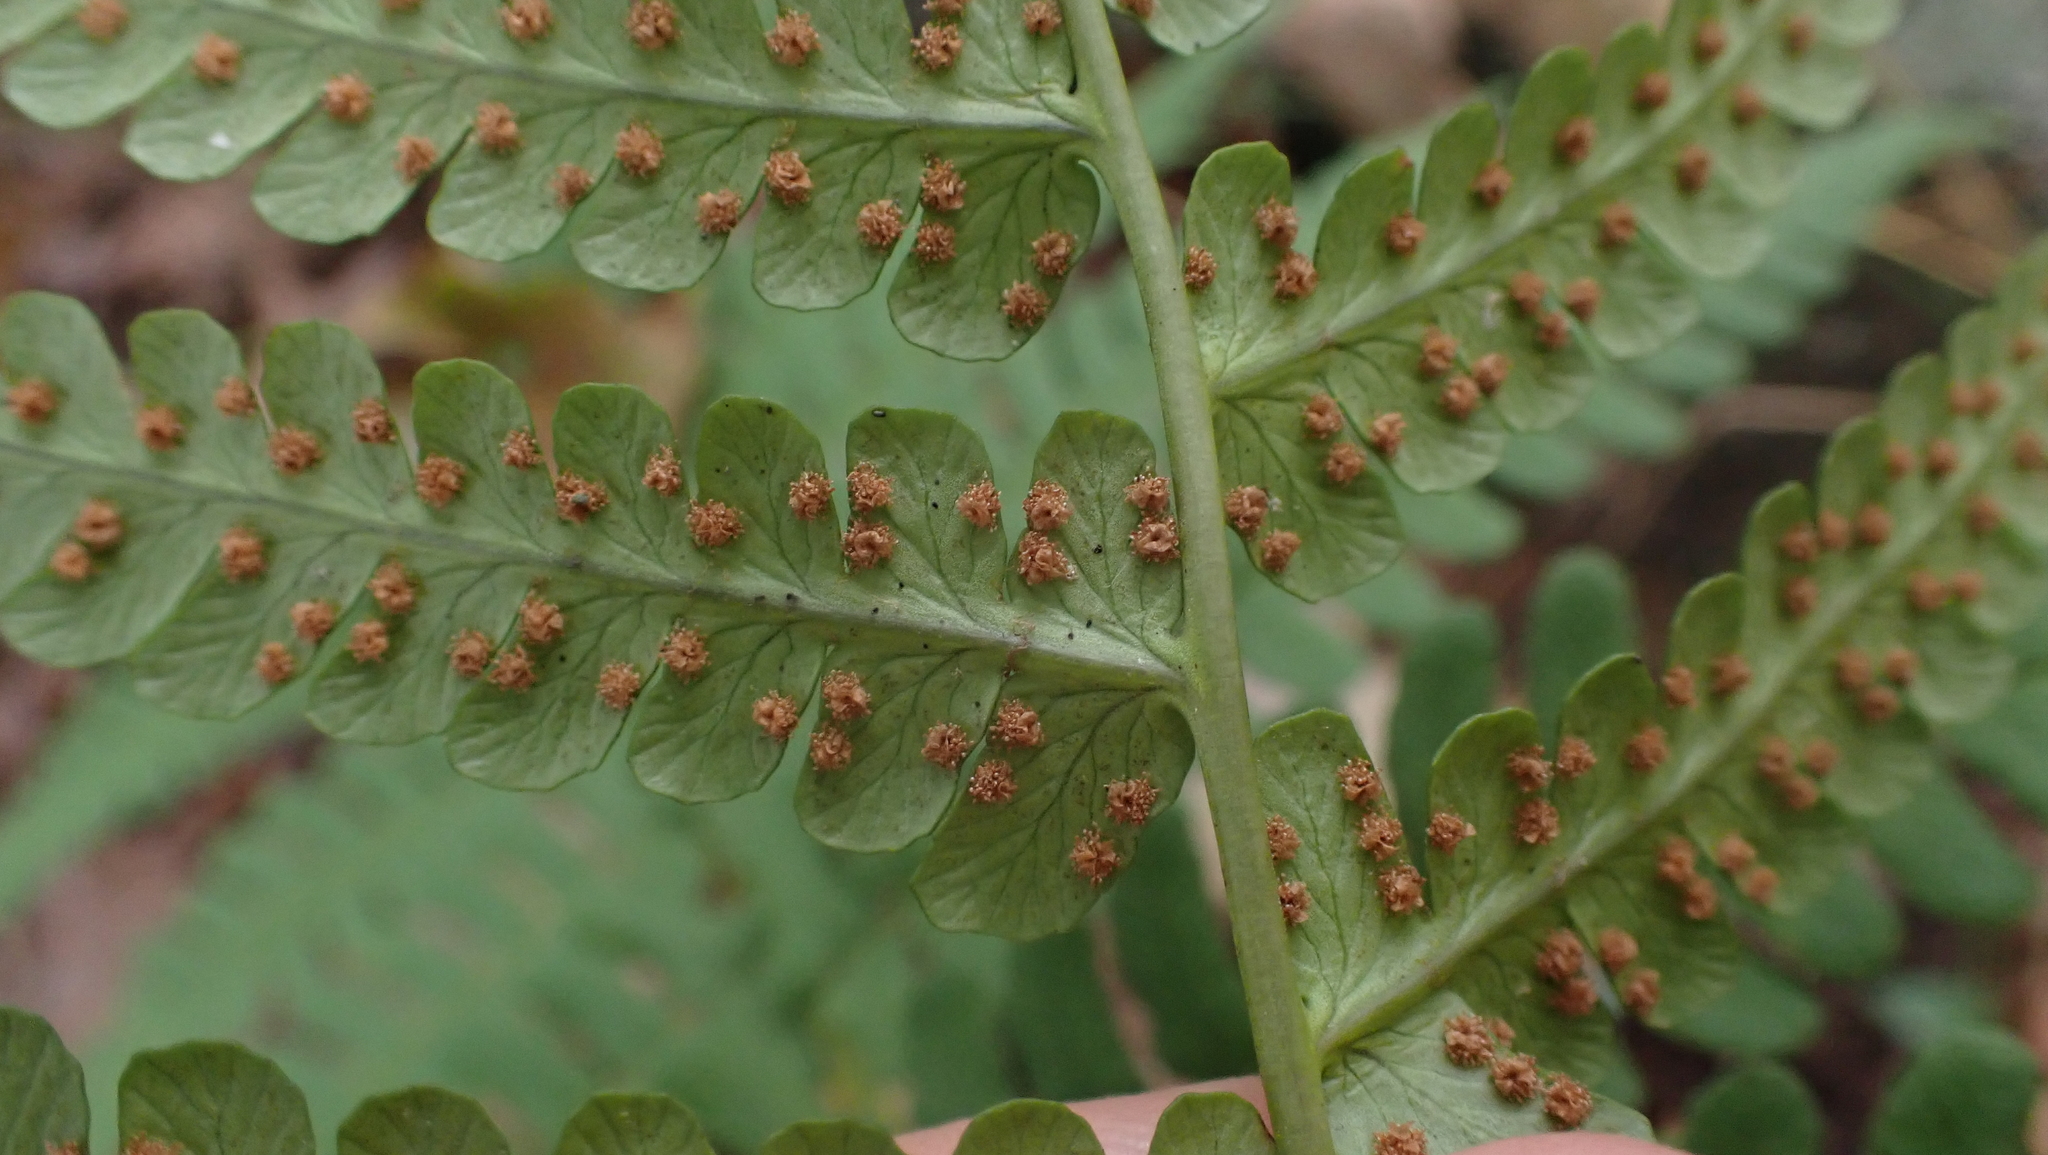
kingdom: Plantae
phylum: Tracheophyta
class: Polypodiopsida
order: Polypodiales
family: Dryopteridaceae
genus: Dryopteris
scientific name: Dryopteris marginalis
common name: Marginal wood fern
